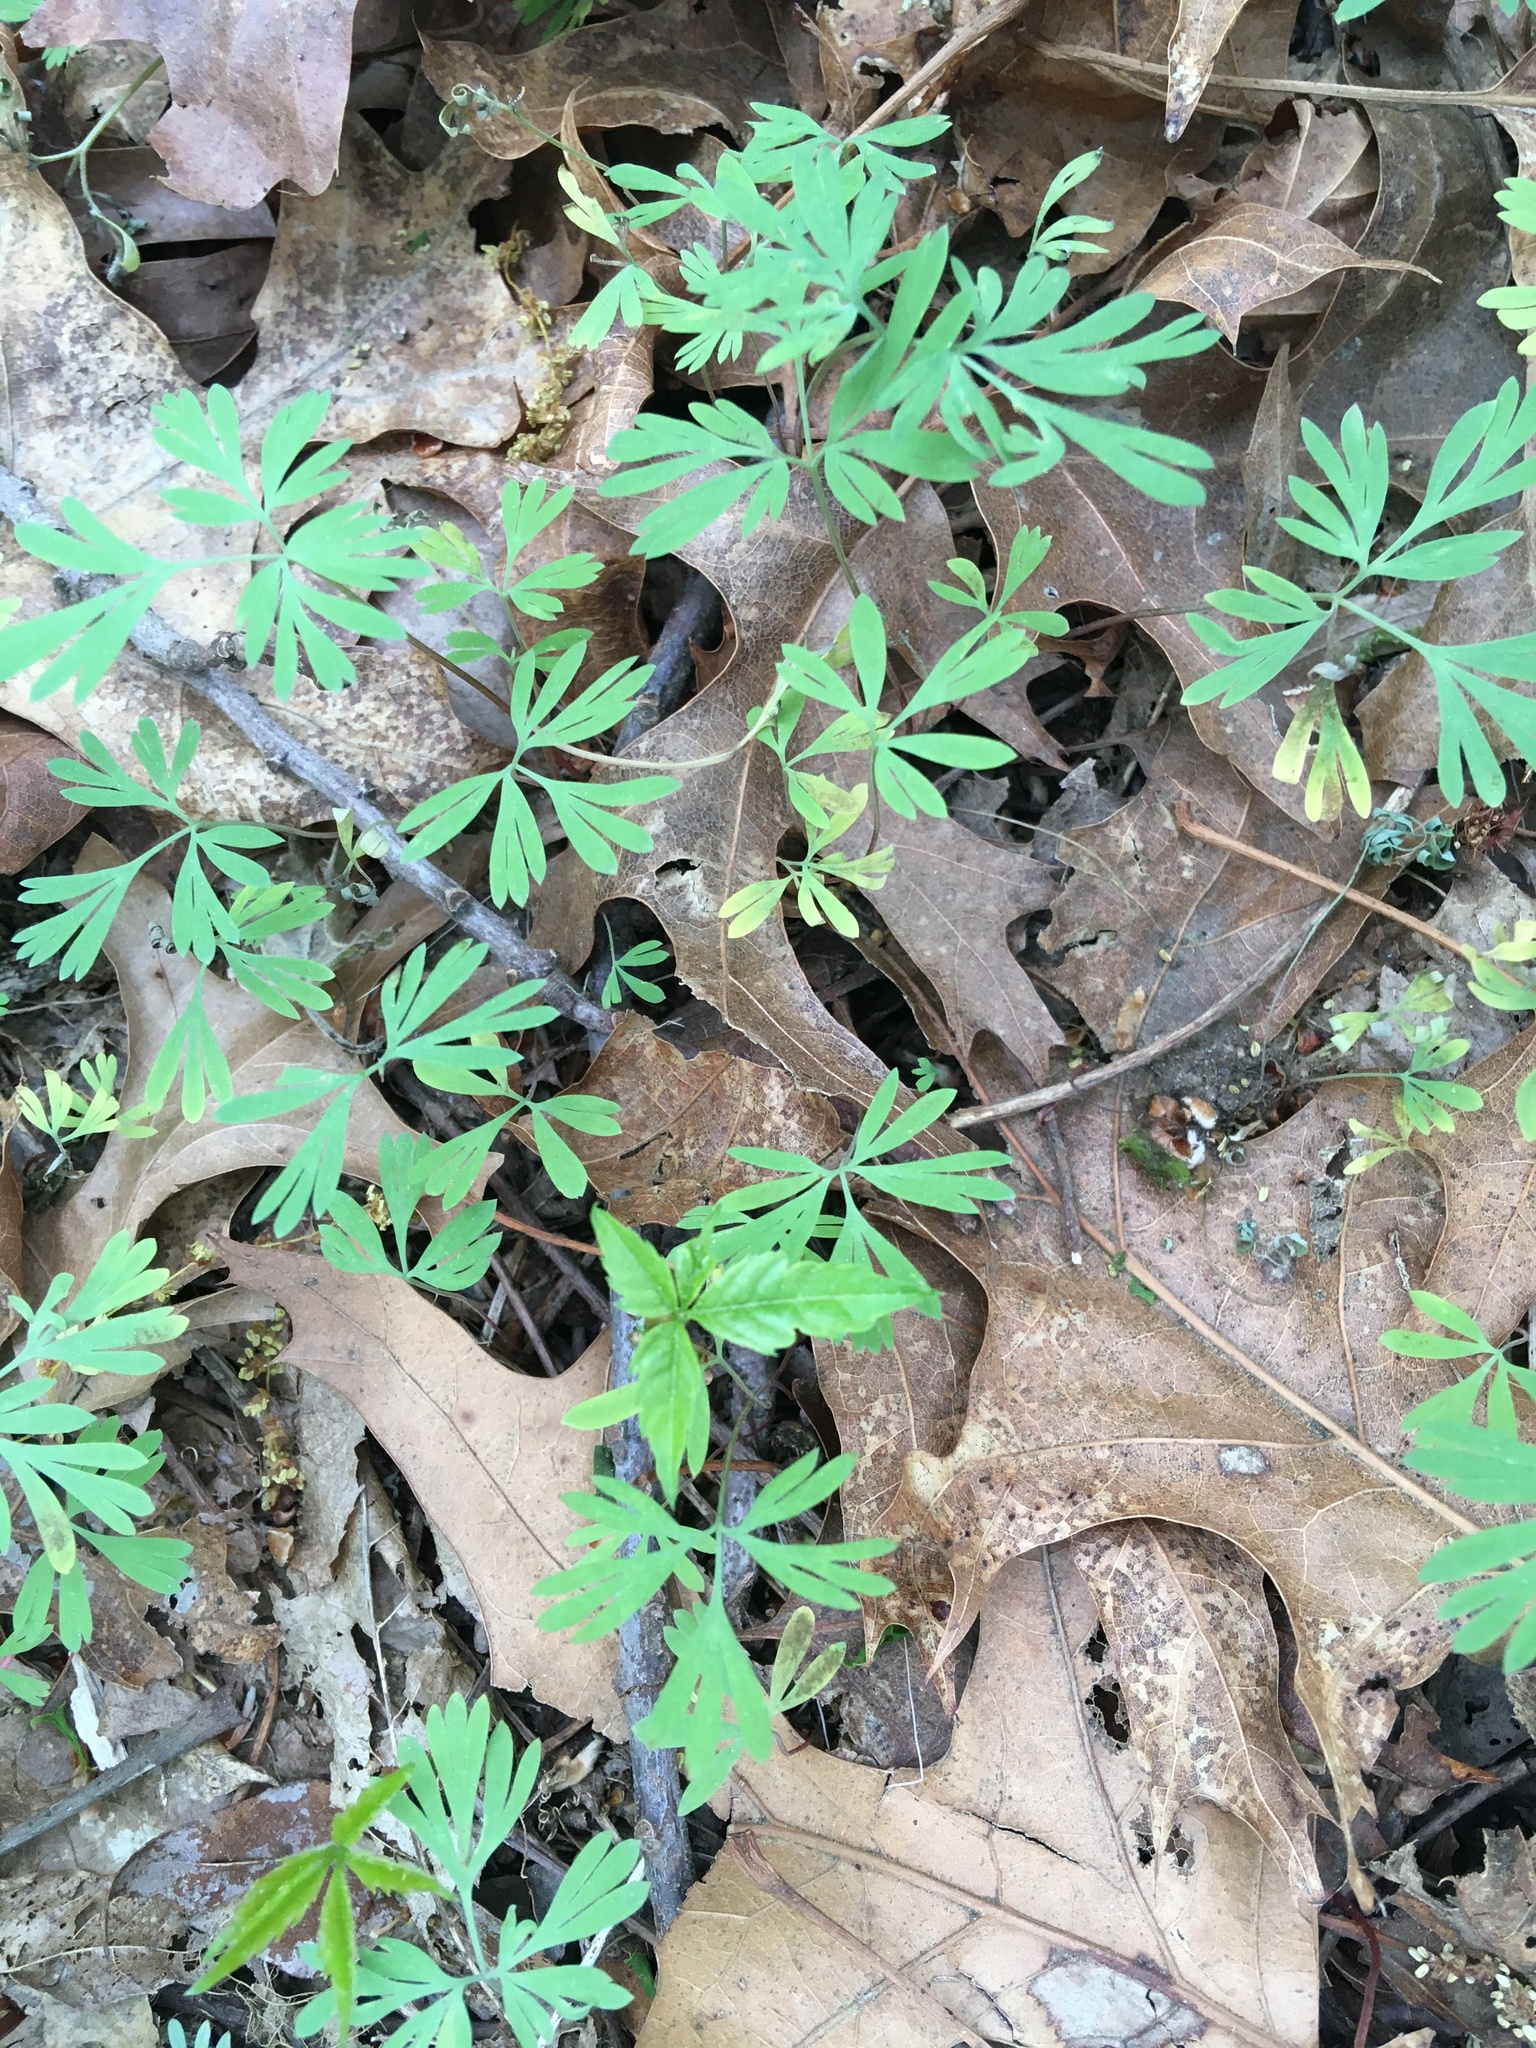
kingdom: Plantae
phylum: Tracheophyta
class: Magnoliopsida
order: Ranunculales
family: Papaveraceae
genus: Dicentra
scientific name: Dicentra cucullaria
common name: Dutchman's breeches
